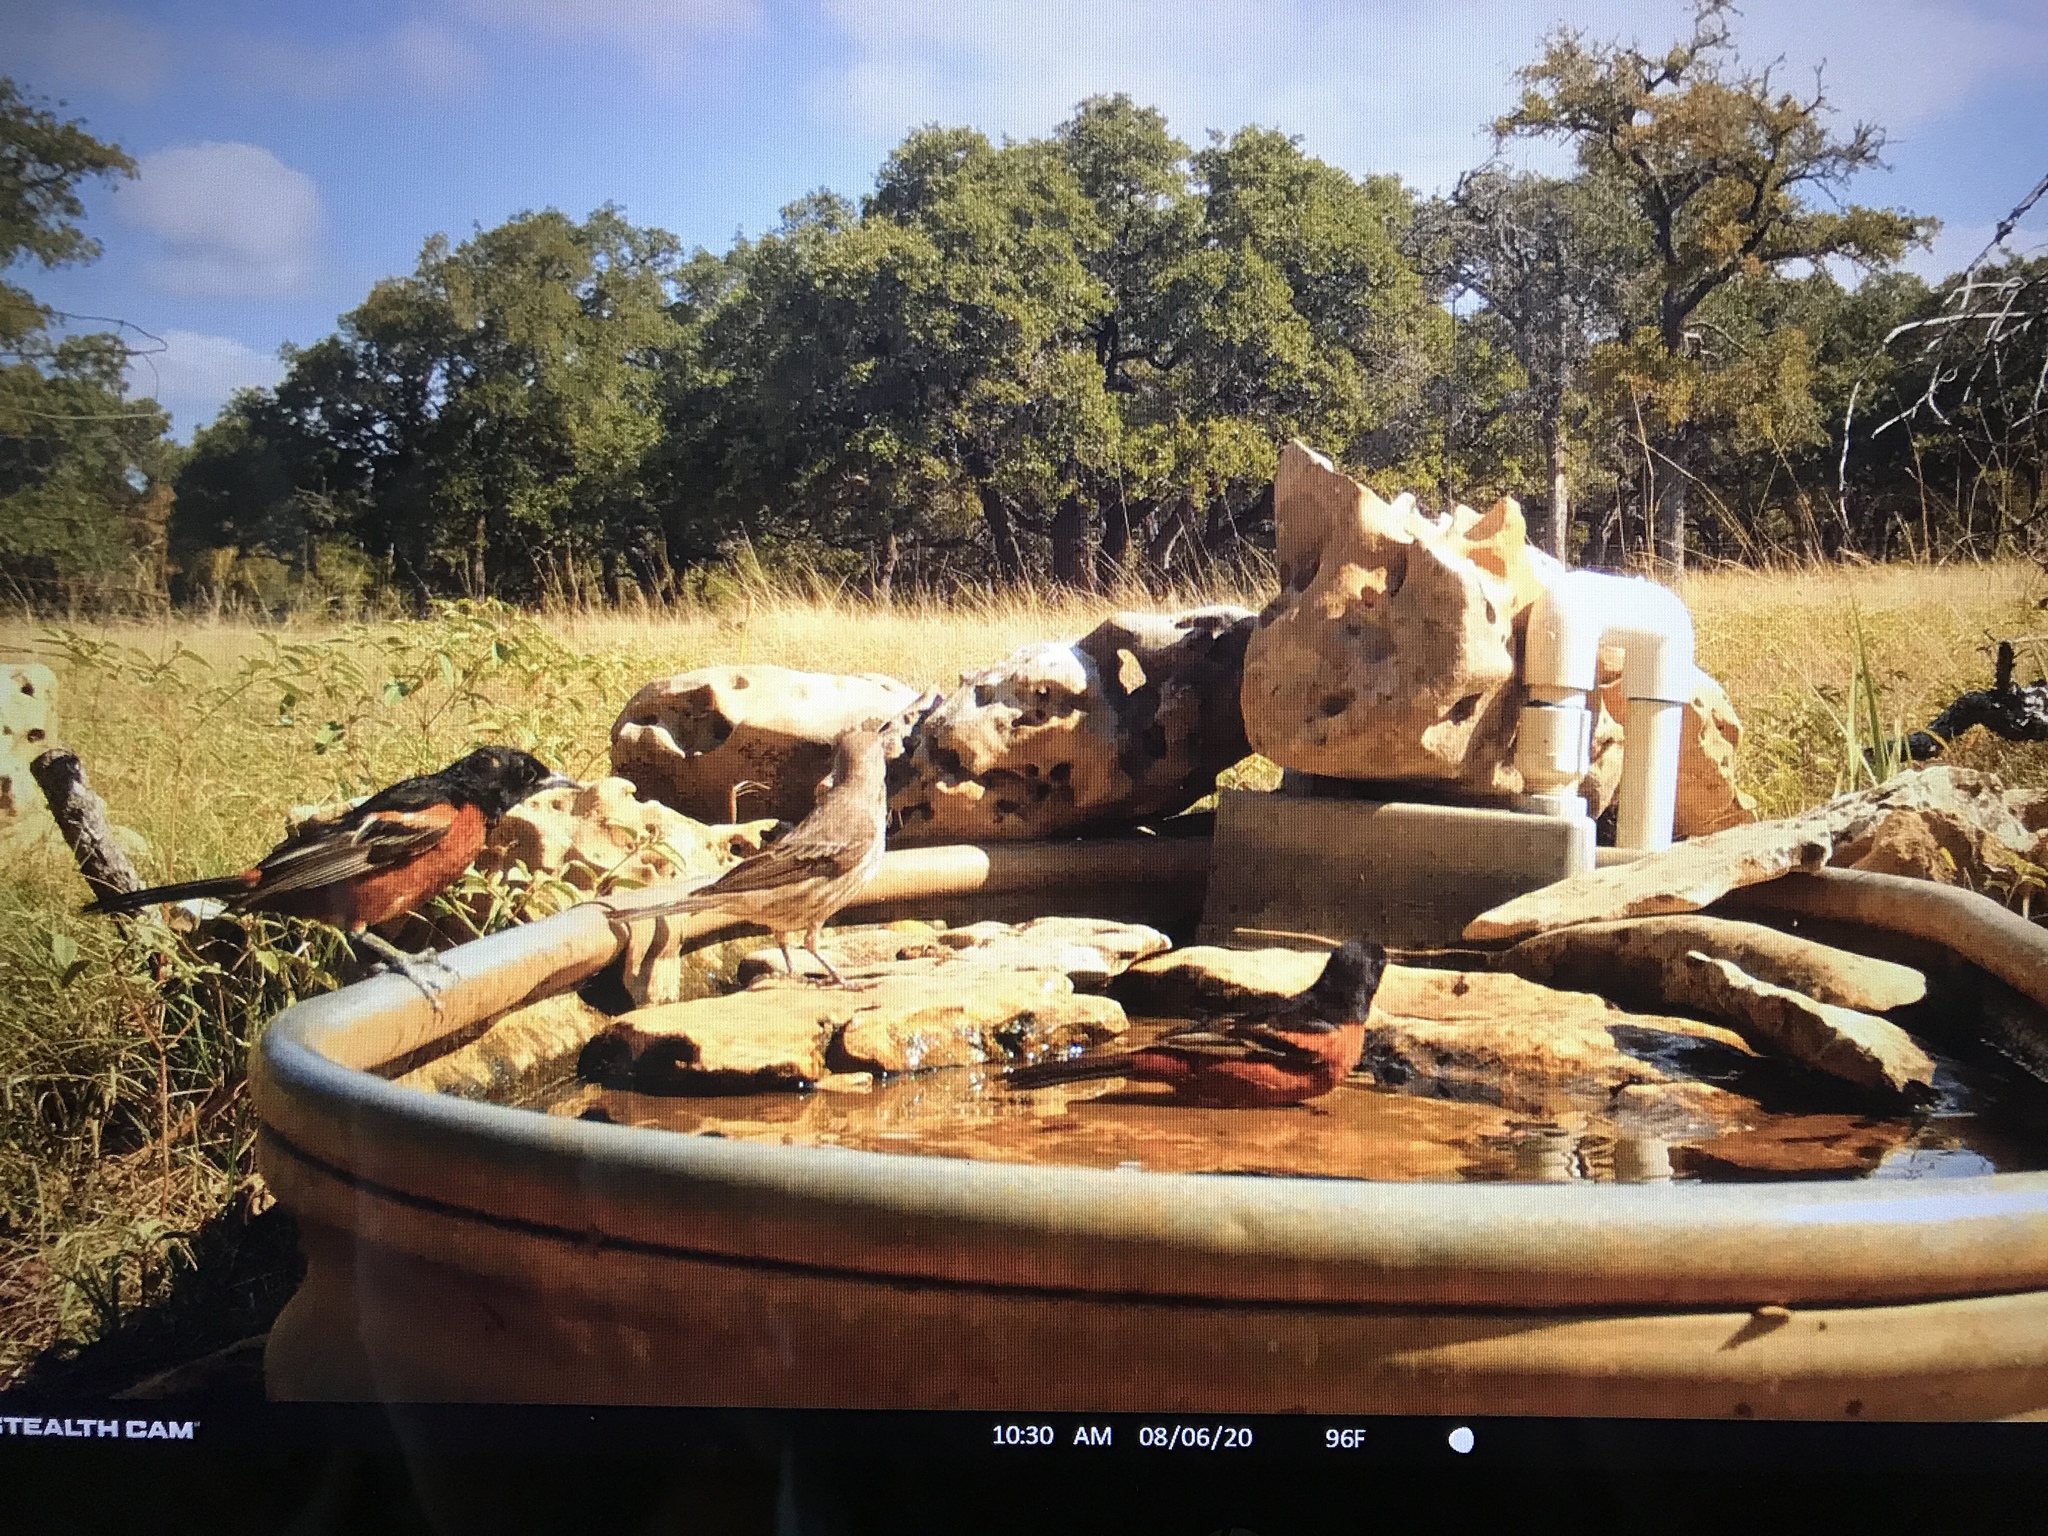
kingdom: Animalia
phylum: Chordata
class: Aves
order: Passeriformes
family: Icteridae
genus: Icterus
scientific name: Icterus spurius
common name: Orchard oriole
